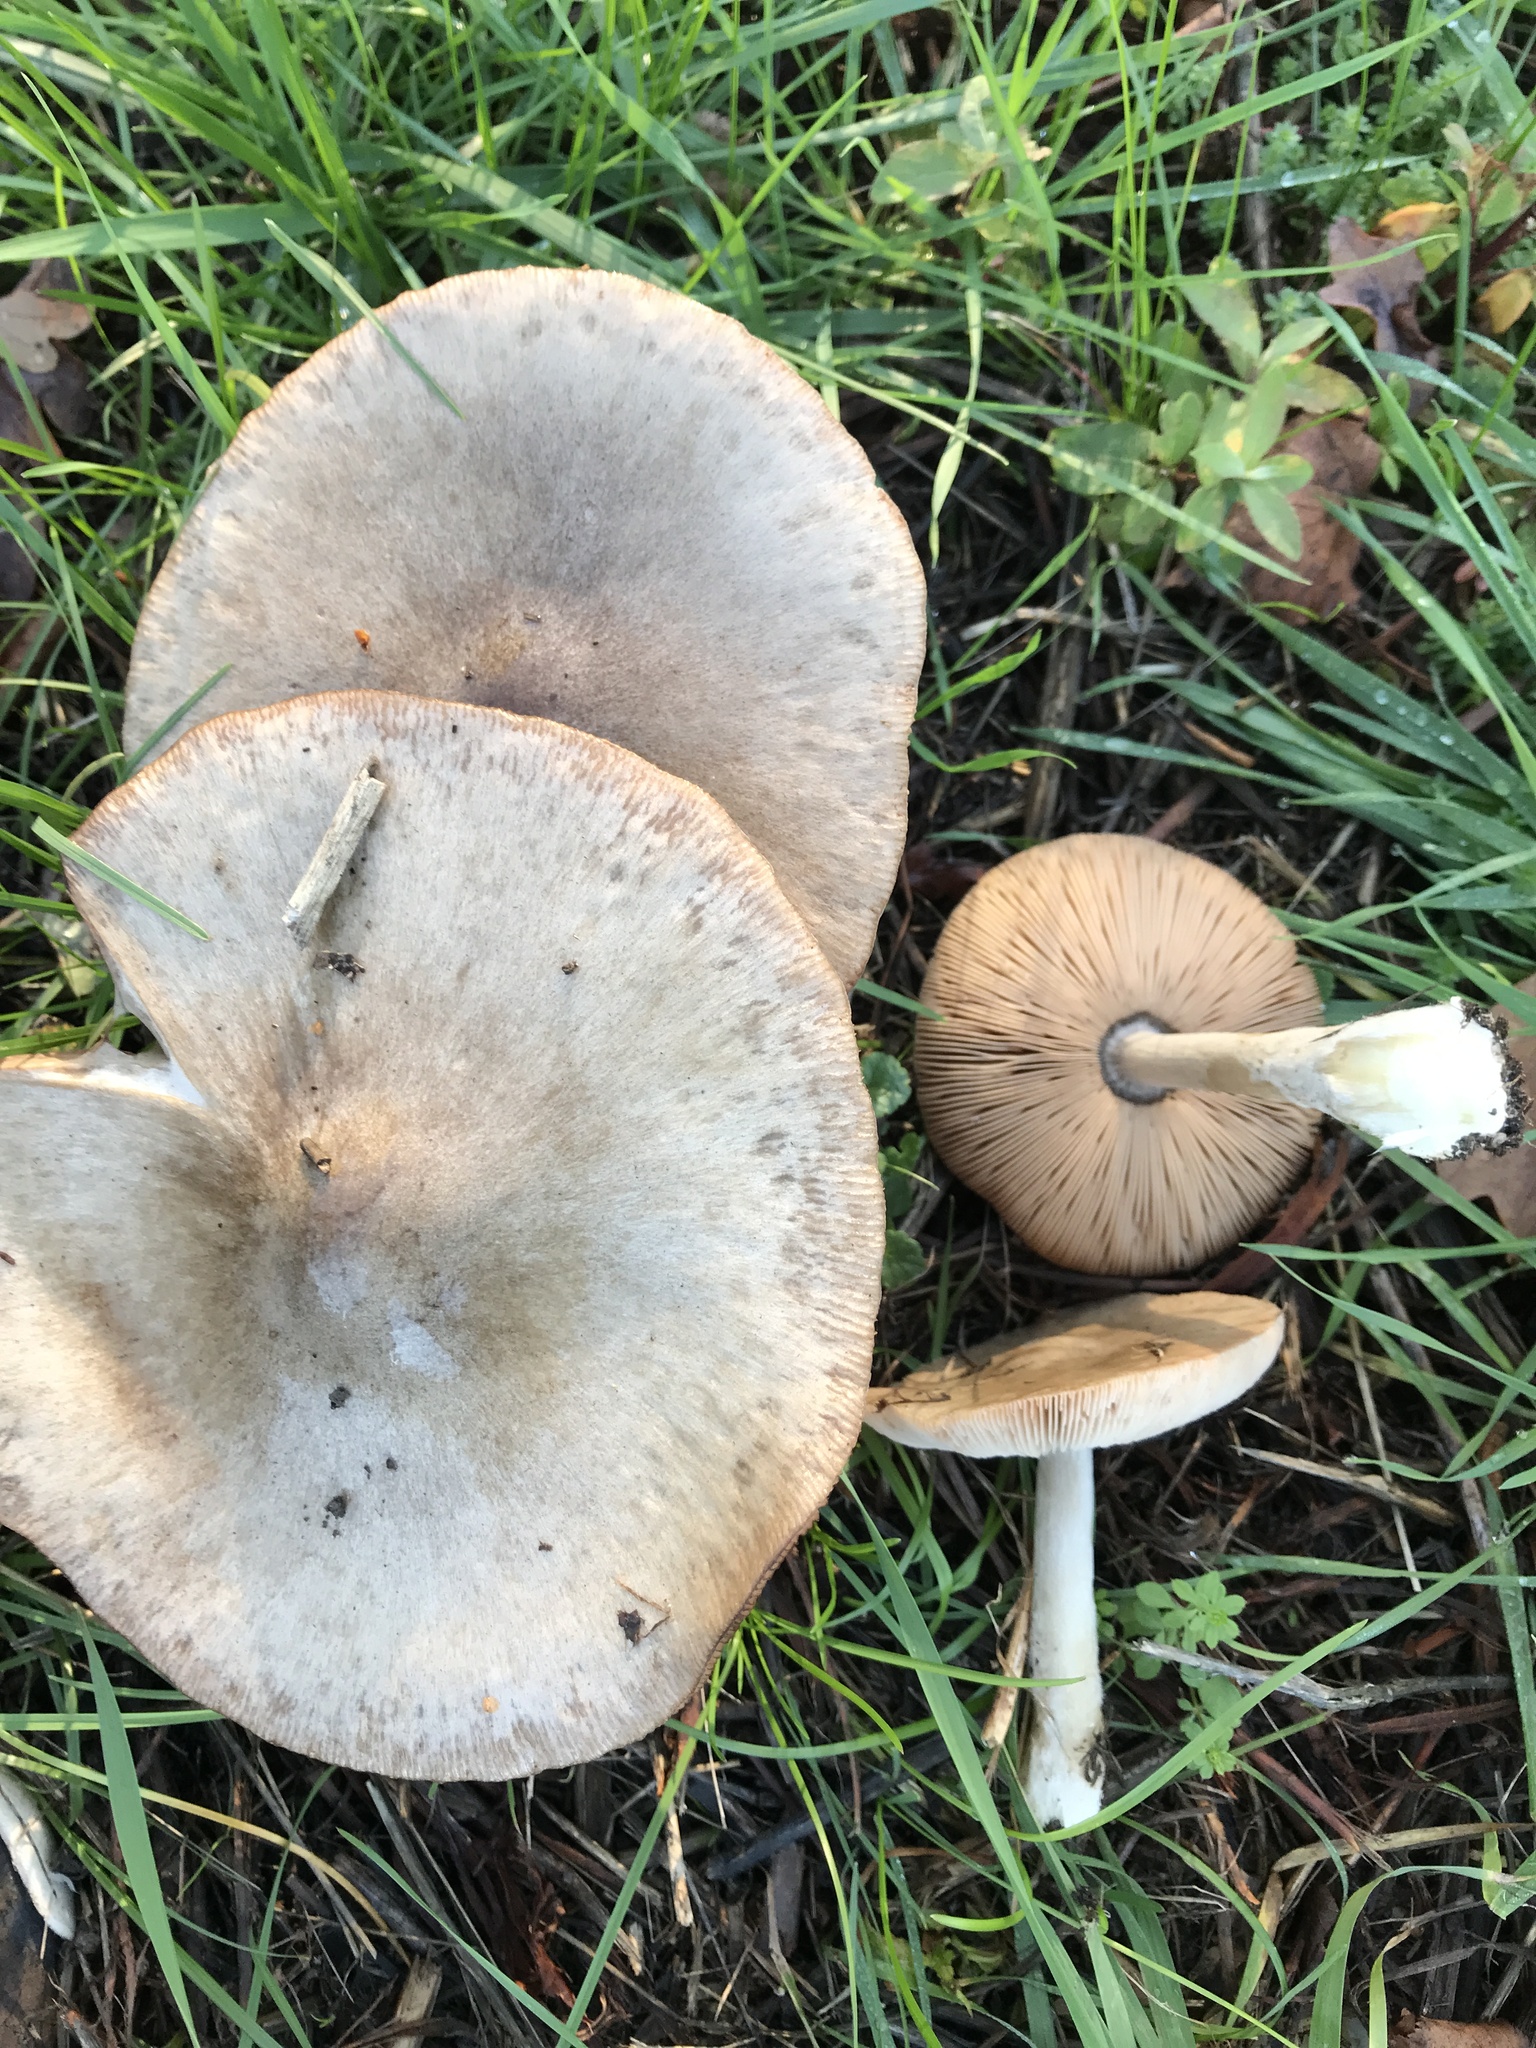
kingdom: Fungi
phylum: Basidiomycota
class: Agaricomycetes
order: Agaricales
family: Pluteaceae
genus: Volvopluteus
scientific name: Volvopluteus gloiocephalus
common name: Stubble rosegill
